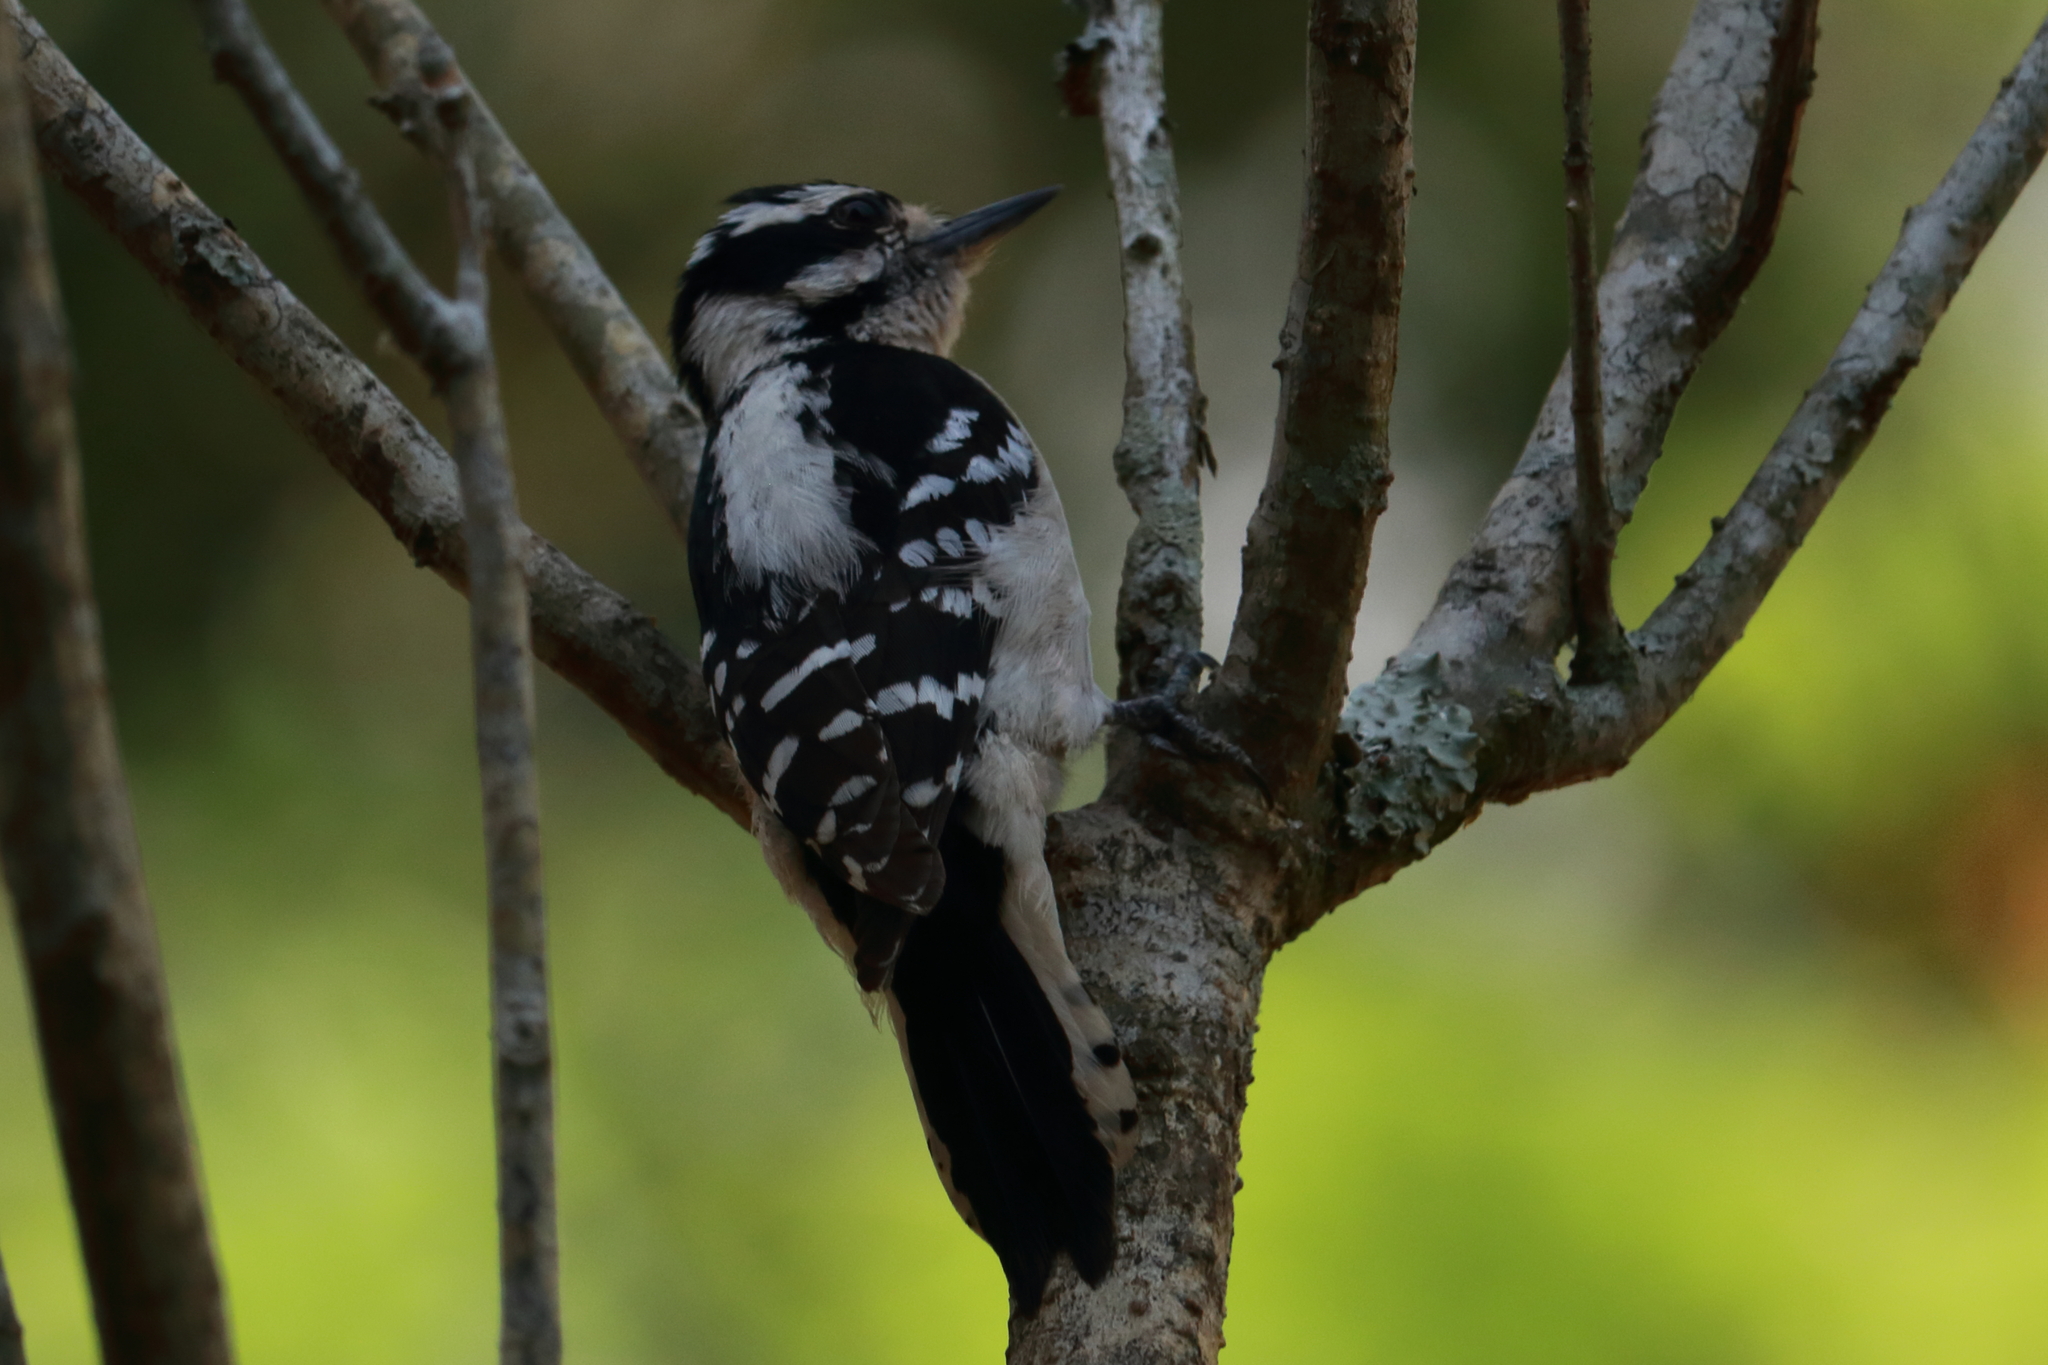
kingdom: Animalia
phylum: Chordata
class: Aves
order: Piciformes
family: Picidae
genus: Dryobates
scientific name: Dryobates pubescens
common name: Downy woodpecker
